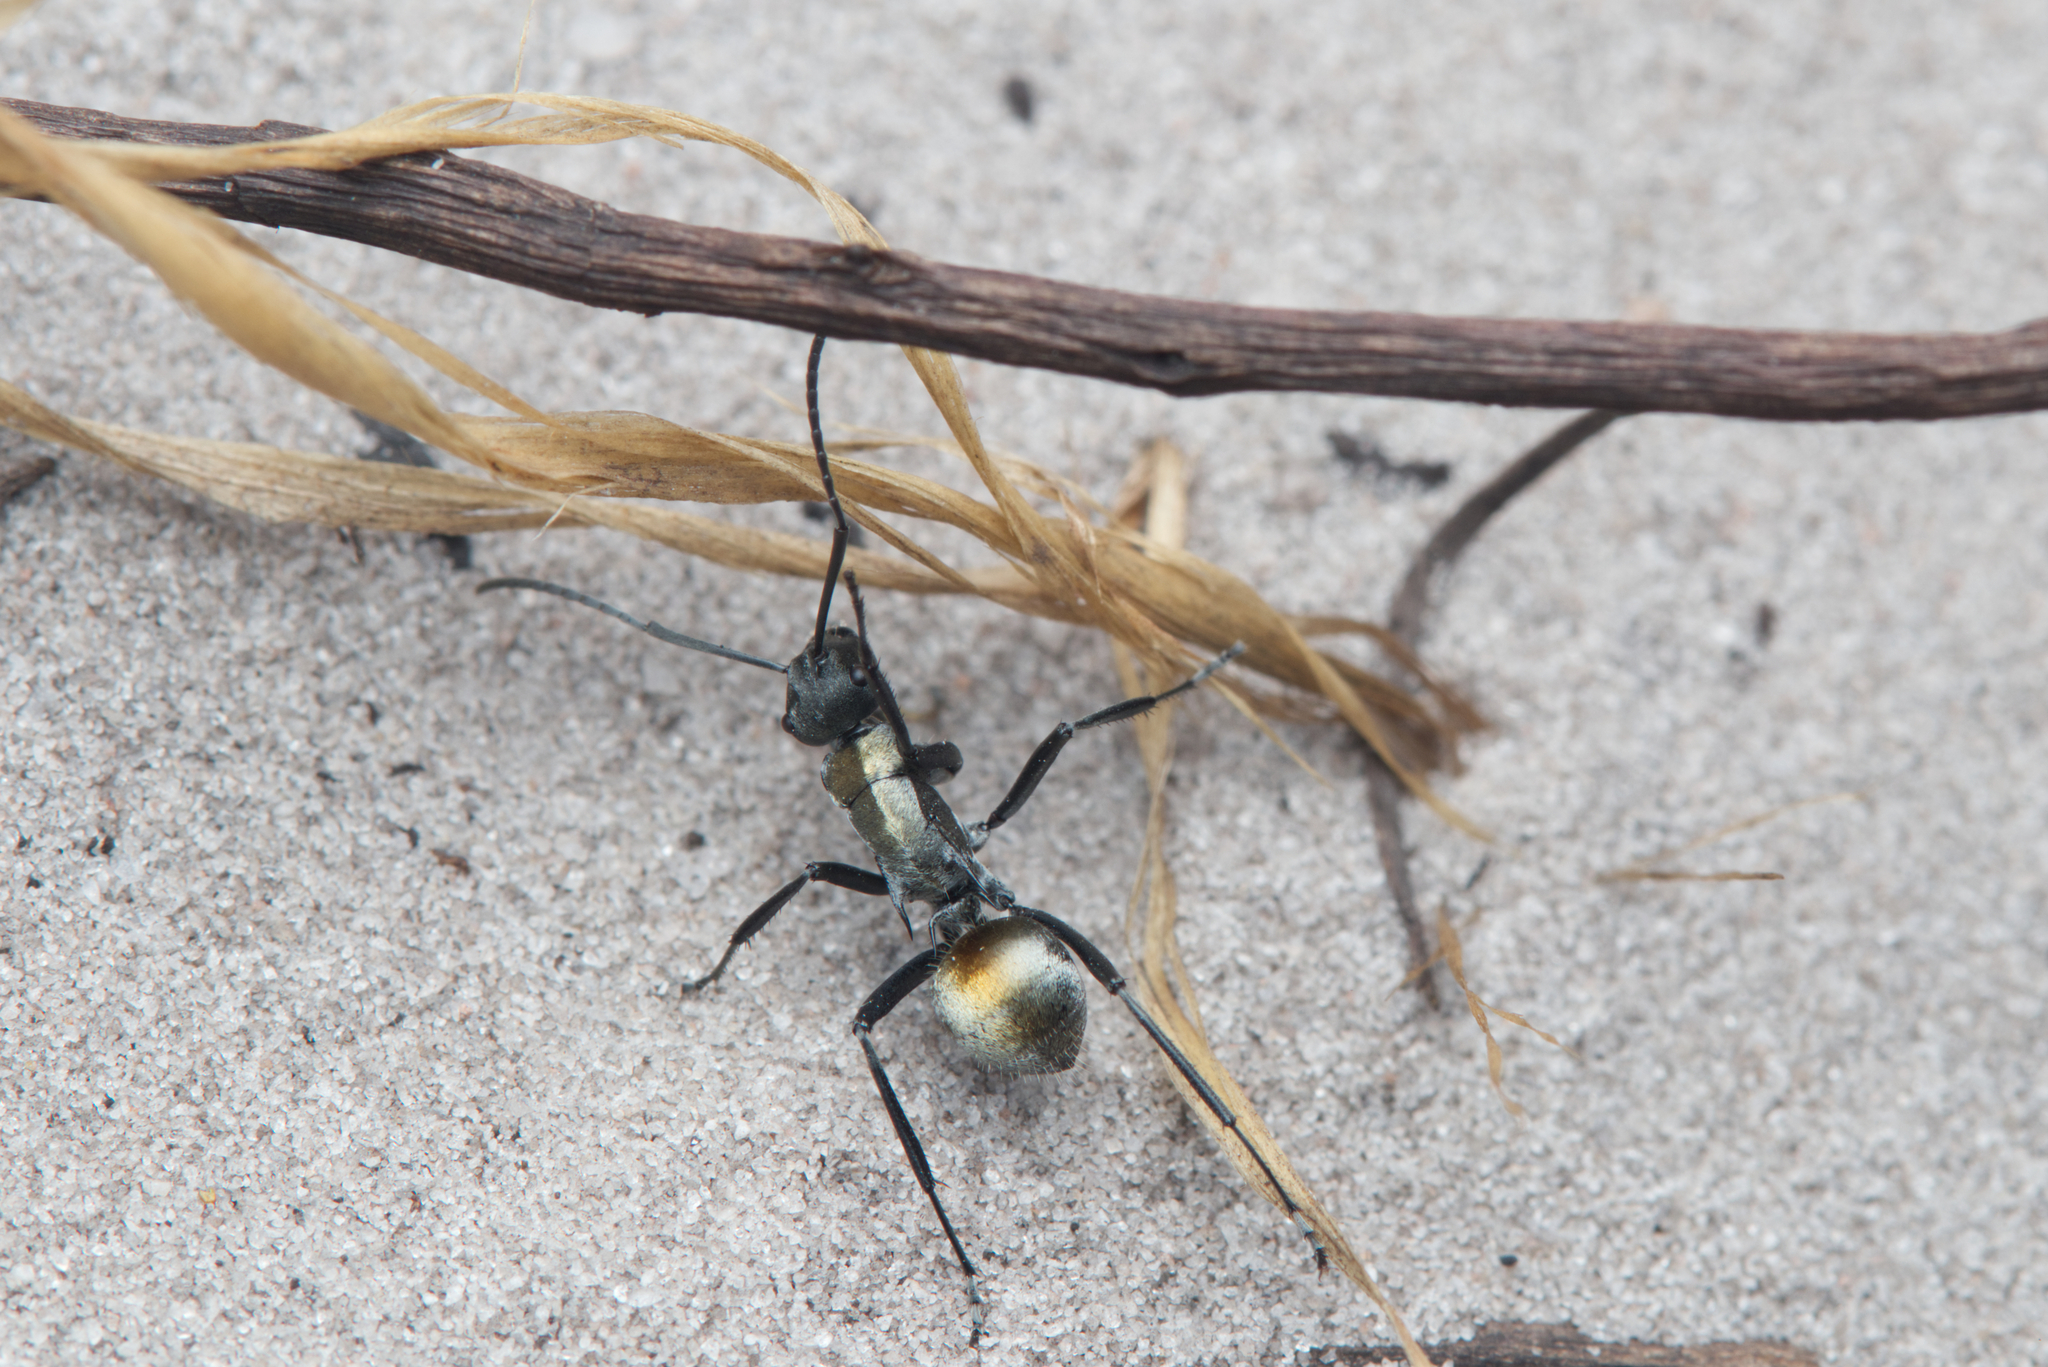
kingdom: Animalia
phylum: Arthropoda
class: Insecta
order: Hymenoptera
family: Formicidae
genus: Polyrhachis
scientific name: Polyrhachis ammon
